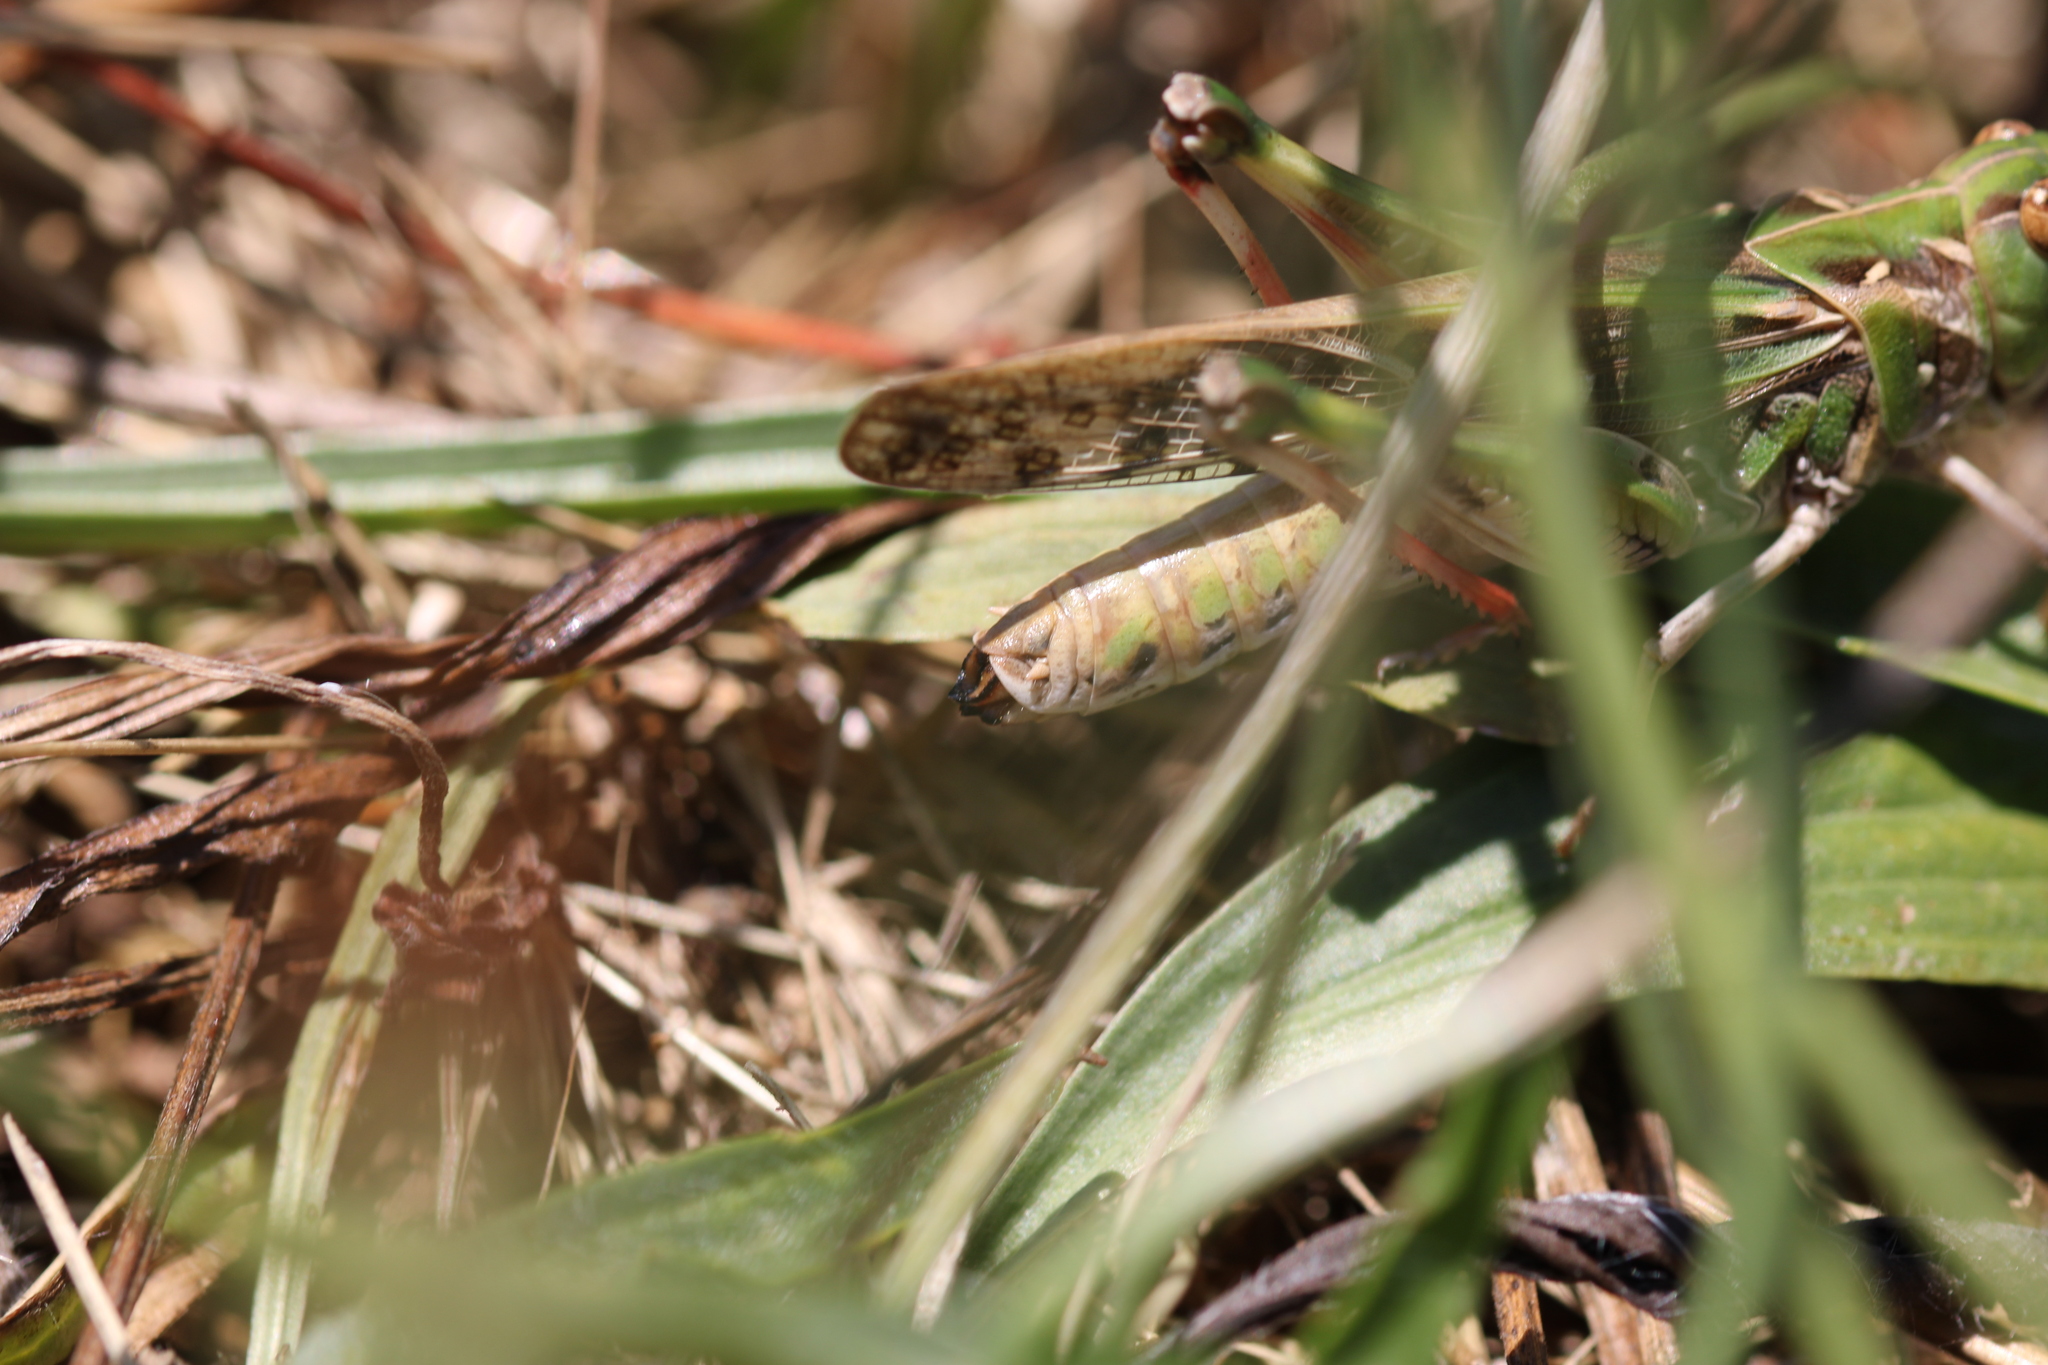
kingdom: Animalia
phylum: Arthropoda
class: Insecta
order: Orthoptera
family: Acrididae
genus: Oedaleus
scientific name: Oedaleus decorus
